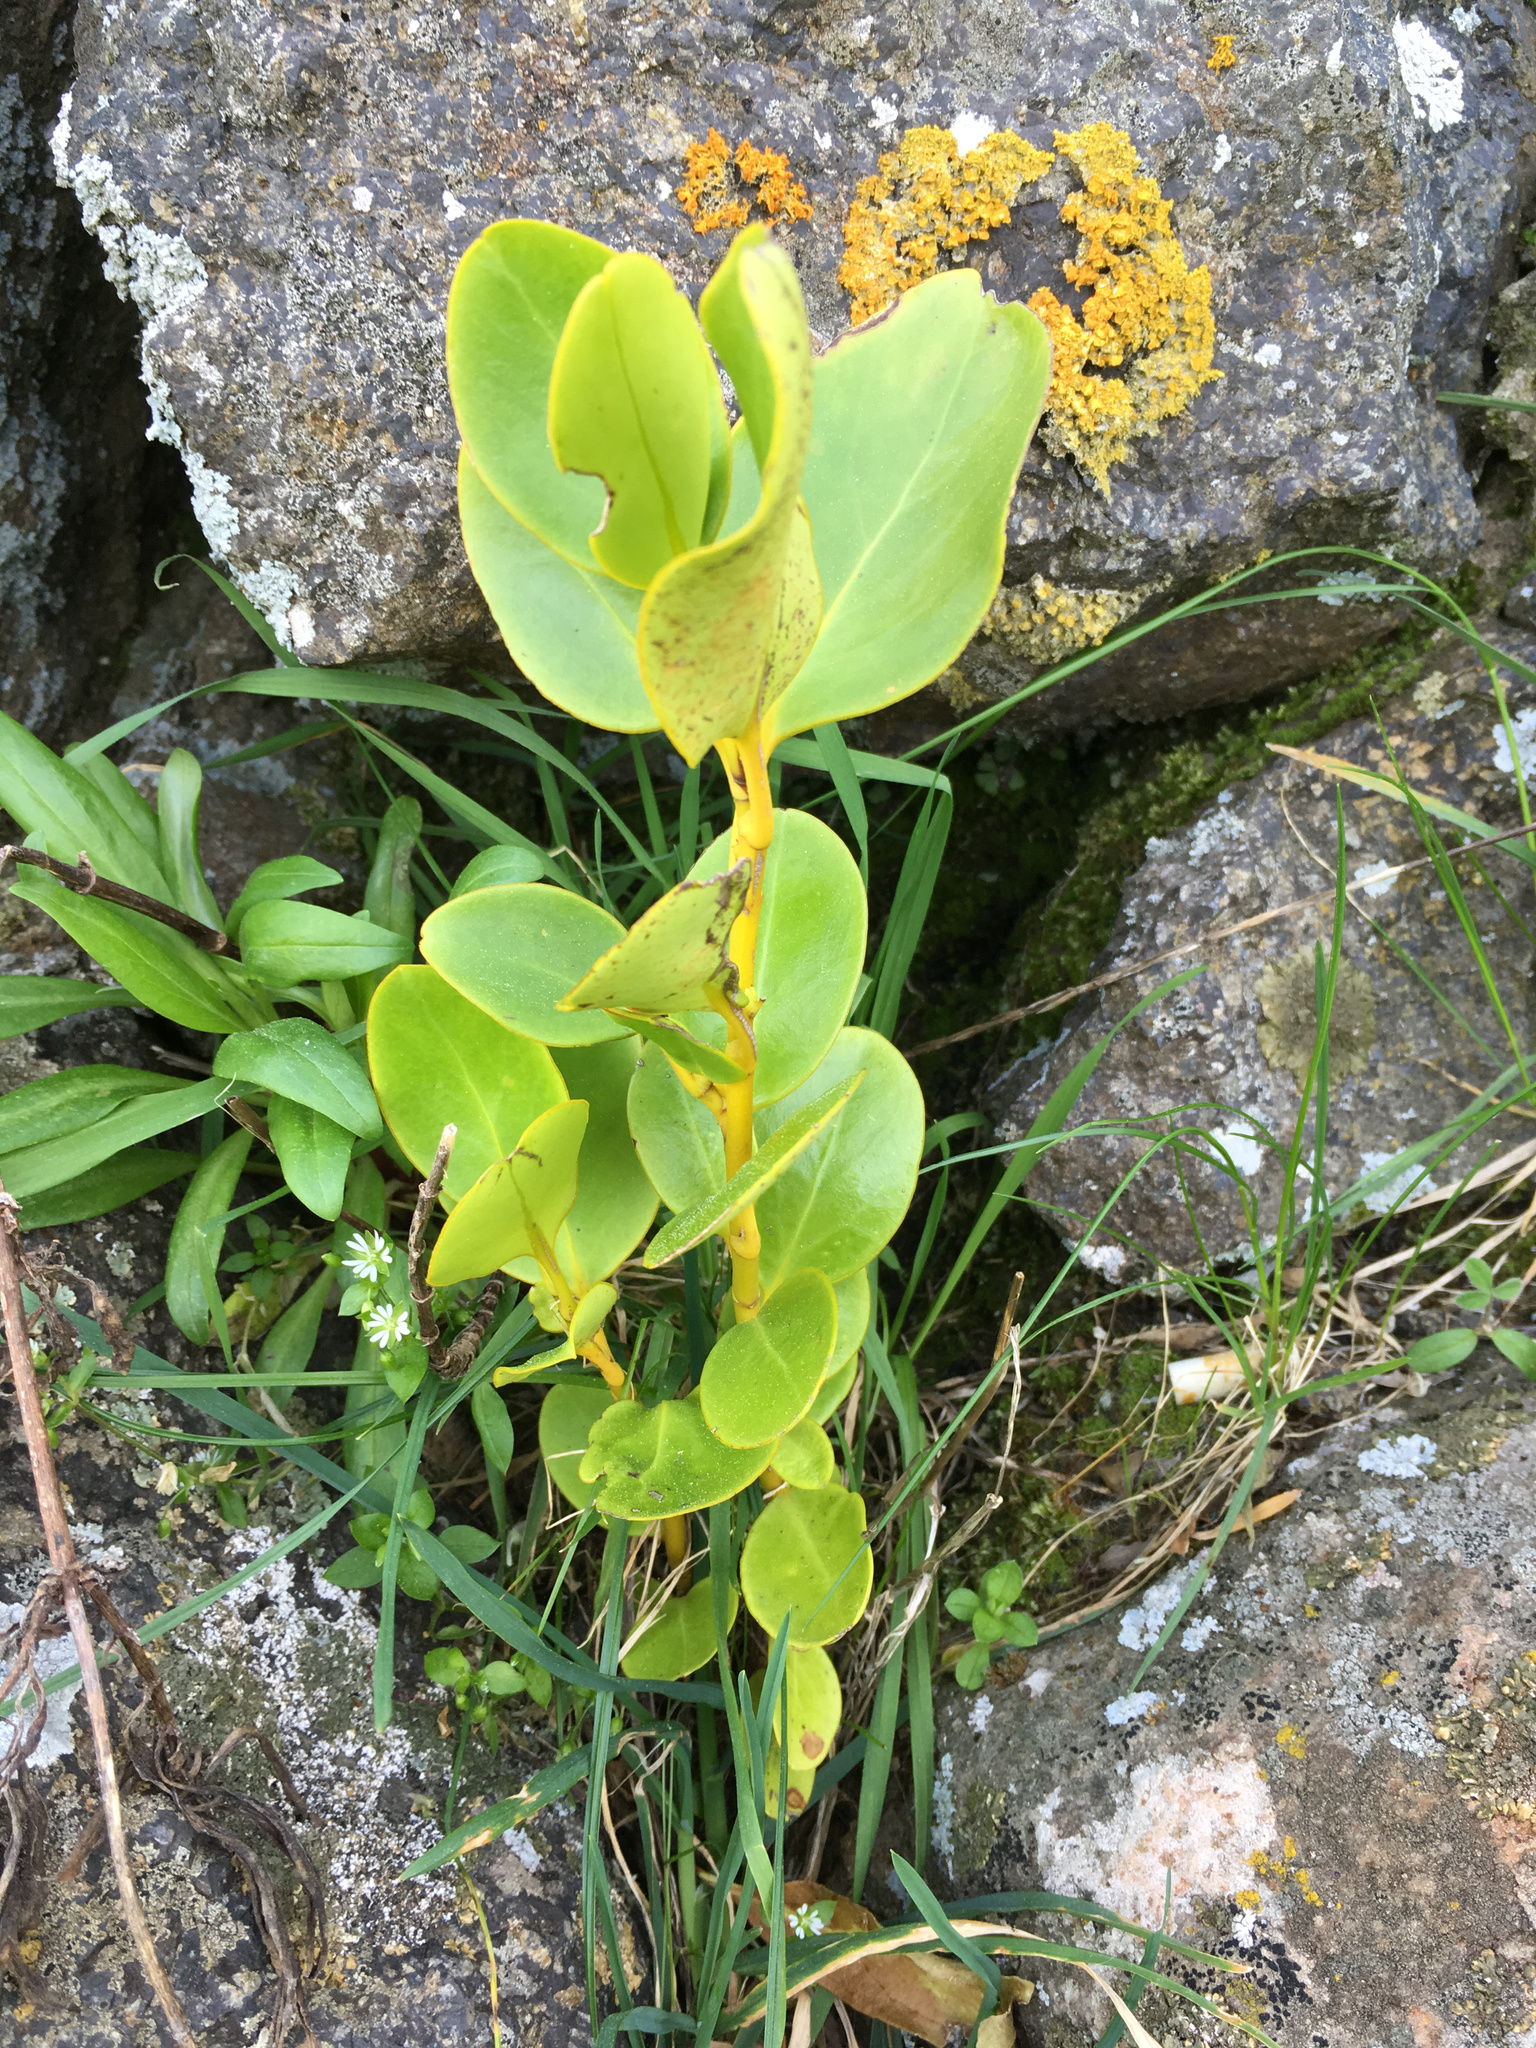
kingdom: Plantae
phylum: Tracheophyta
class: Magnoliopsida
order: Apiales
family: Griseliniaceae
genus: Griselinia
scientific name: Griselinia littoralis
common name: New zealand broadleaf
